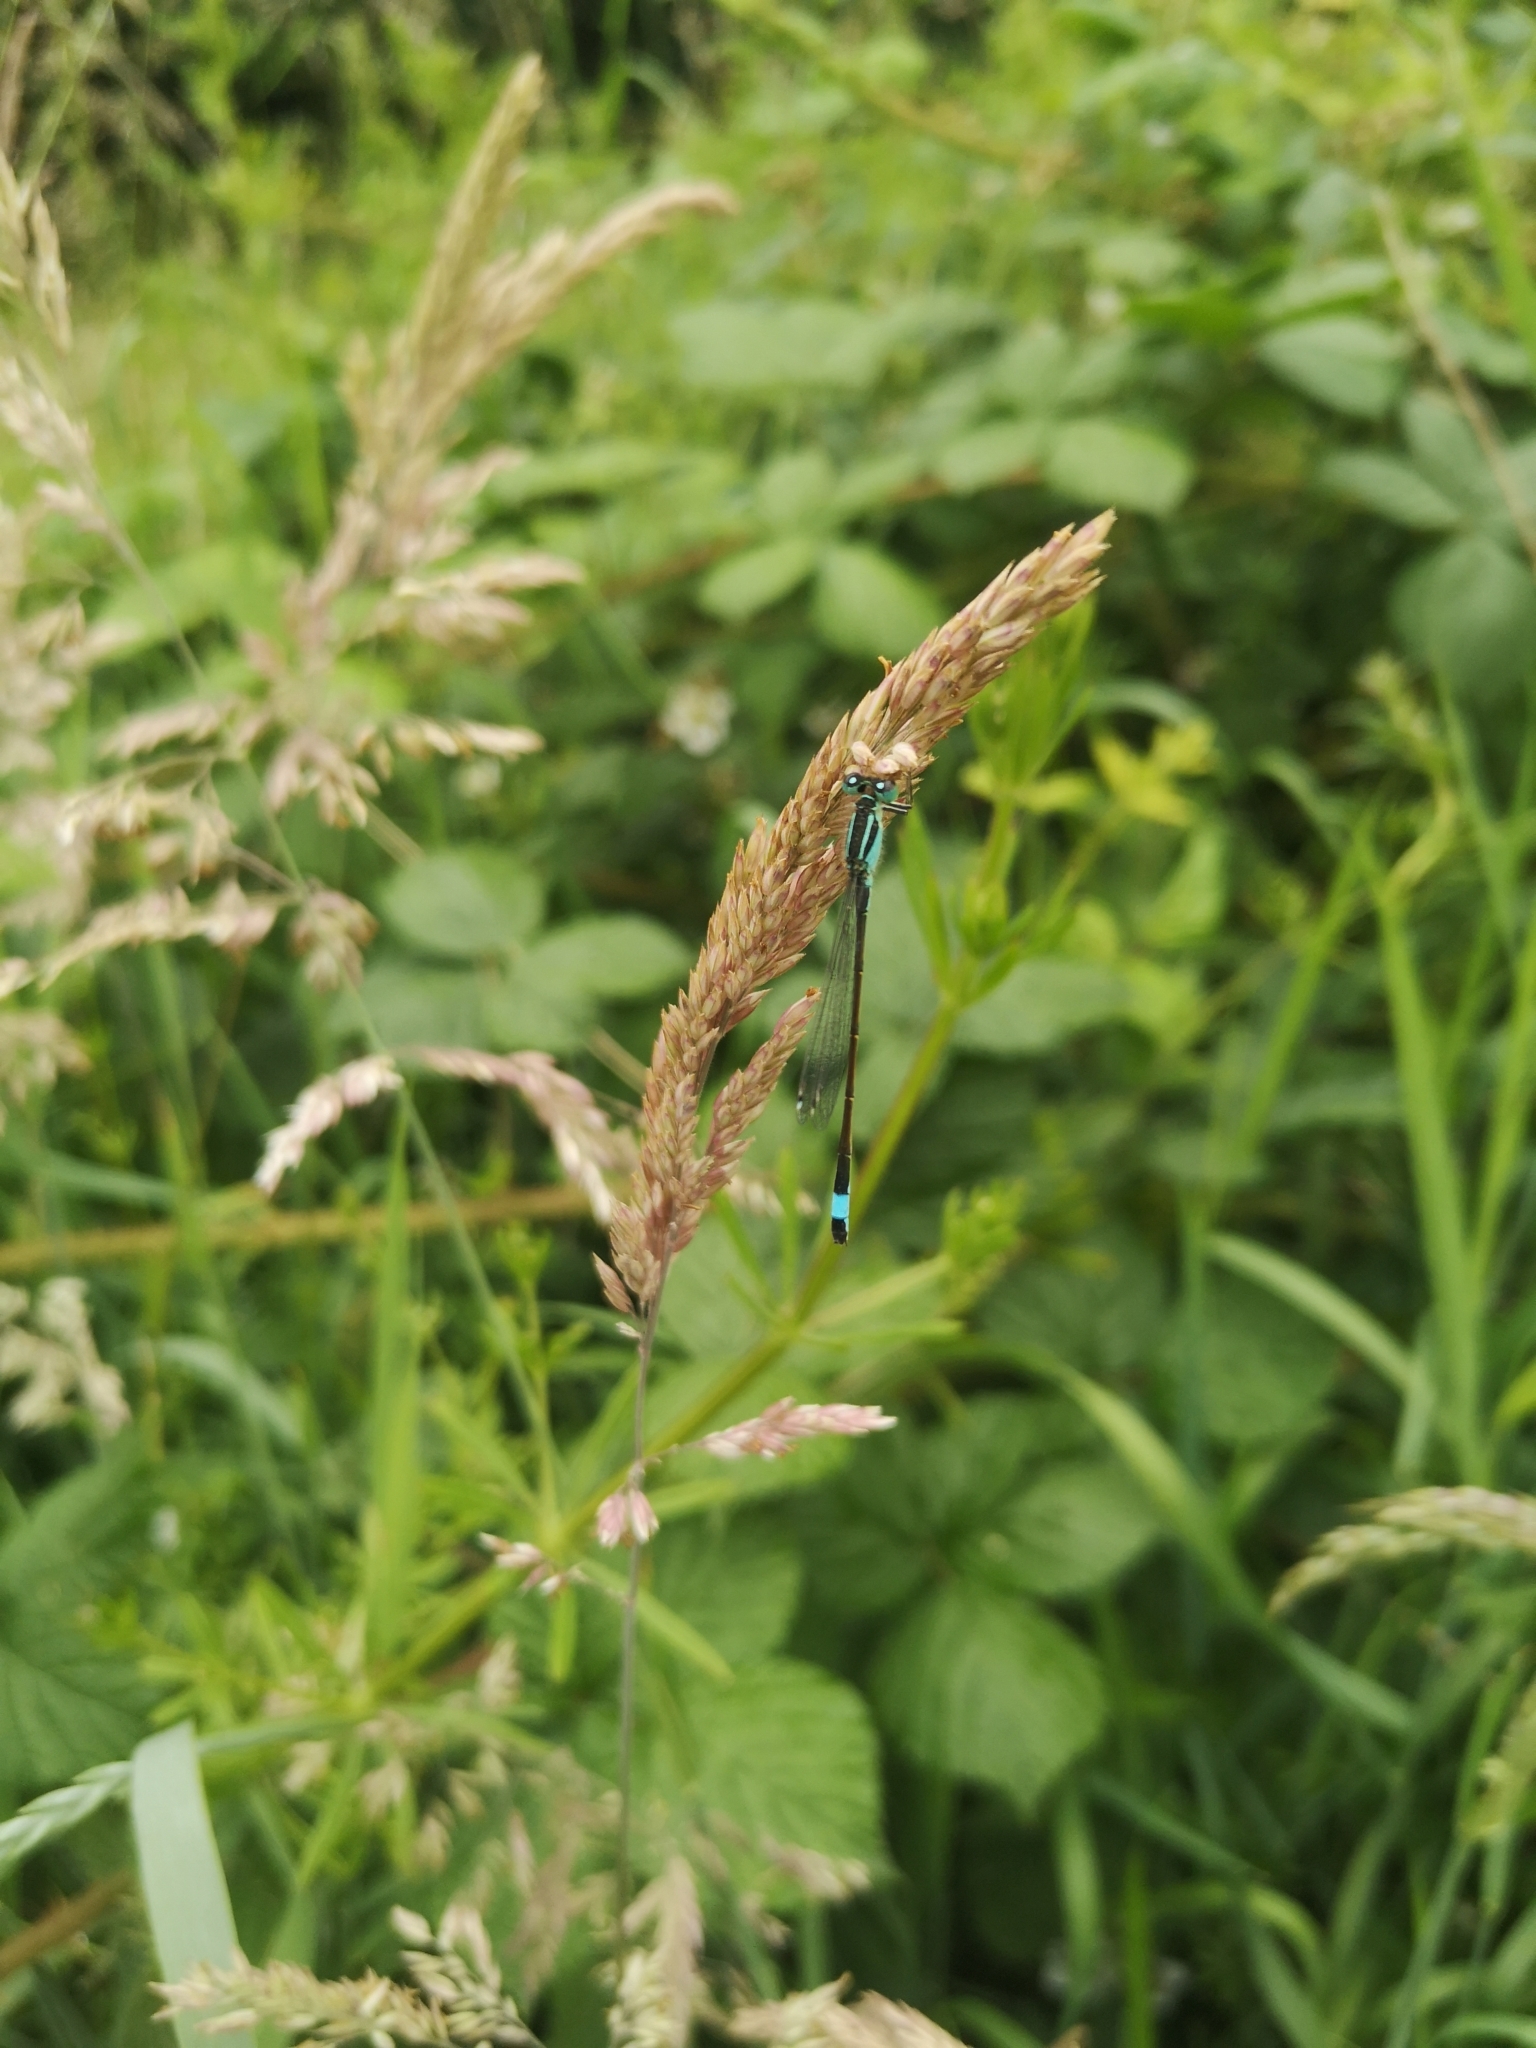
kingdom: Animalia
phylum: Arthropoda
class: Insecta
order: Odonata
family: Coenagrionidae
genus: Ischnura
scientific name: Ischnura elegans
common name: Blue-tailed damselfly
